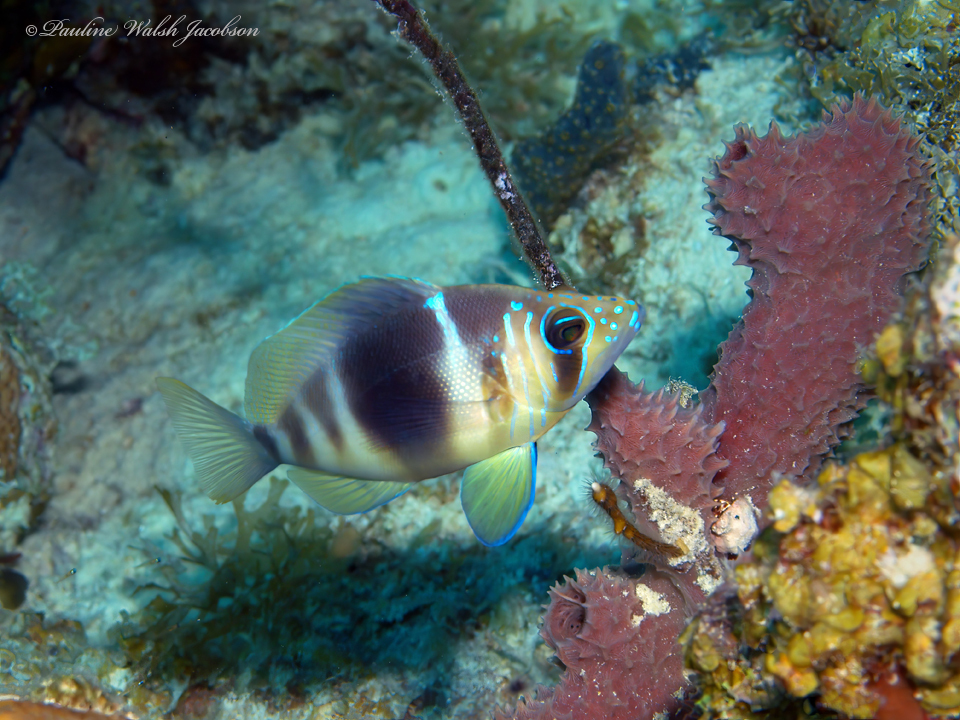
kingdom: Animalia
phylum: Chordata
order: Perciformes
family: Serranidae
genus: Hypoplectrus
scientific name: Hypoplectrus puella
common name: Barred hamlet
